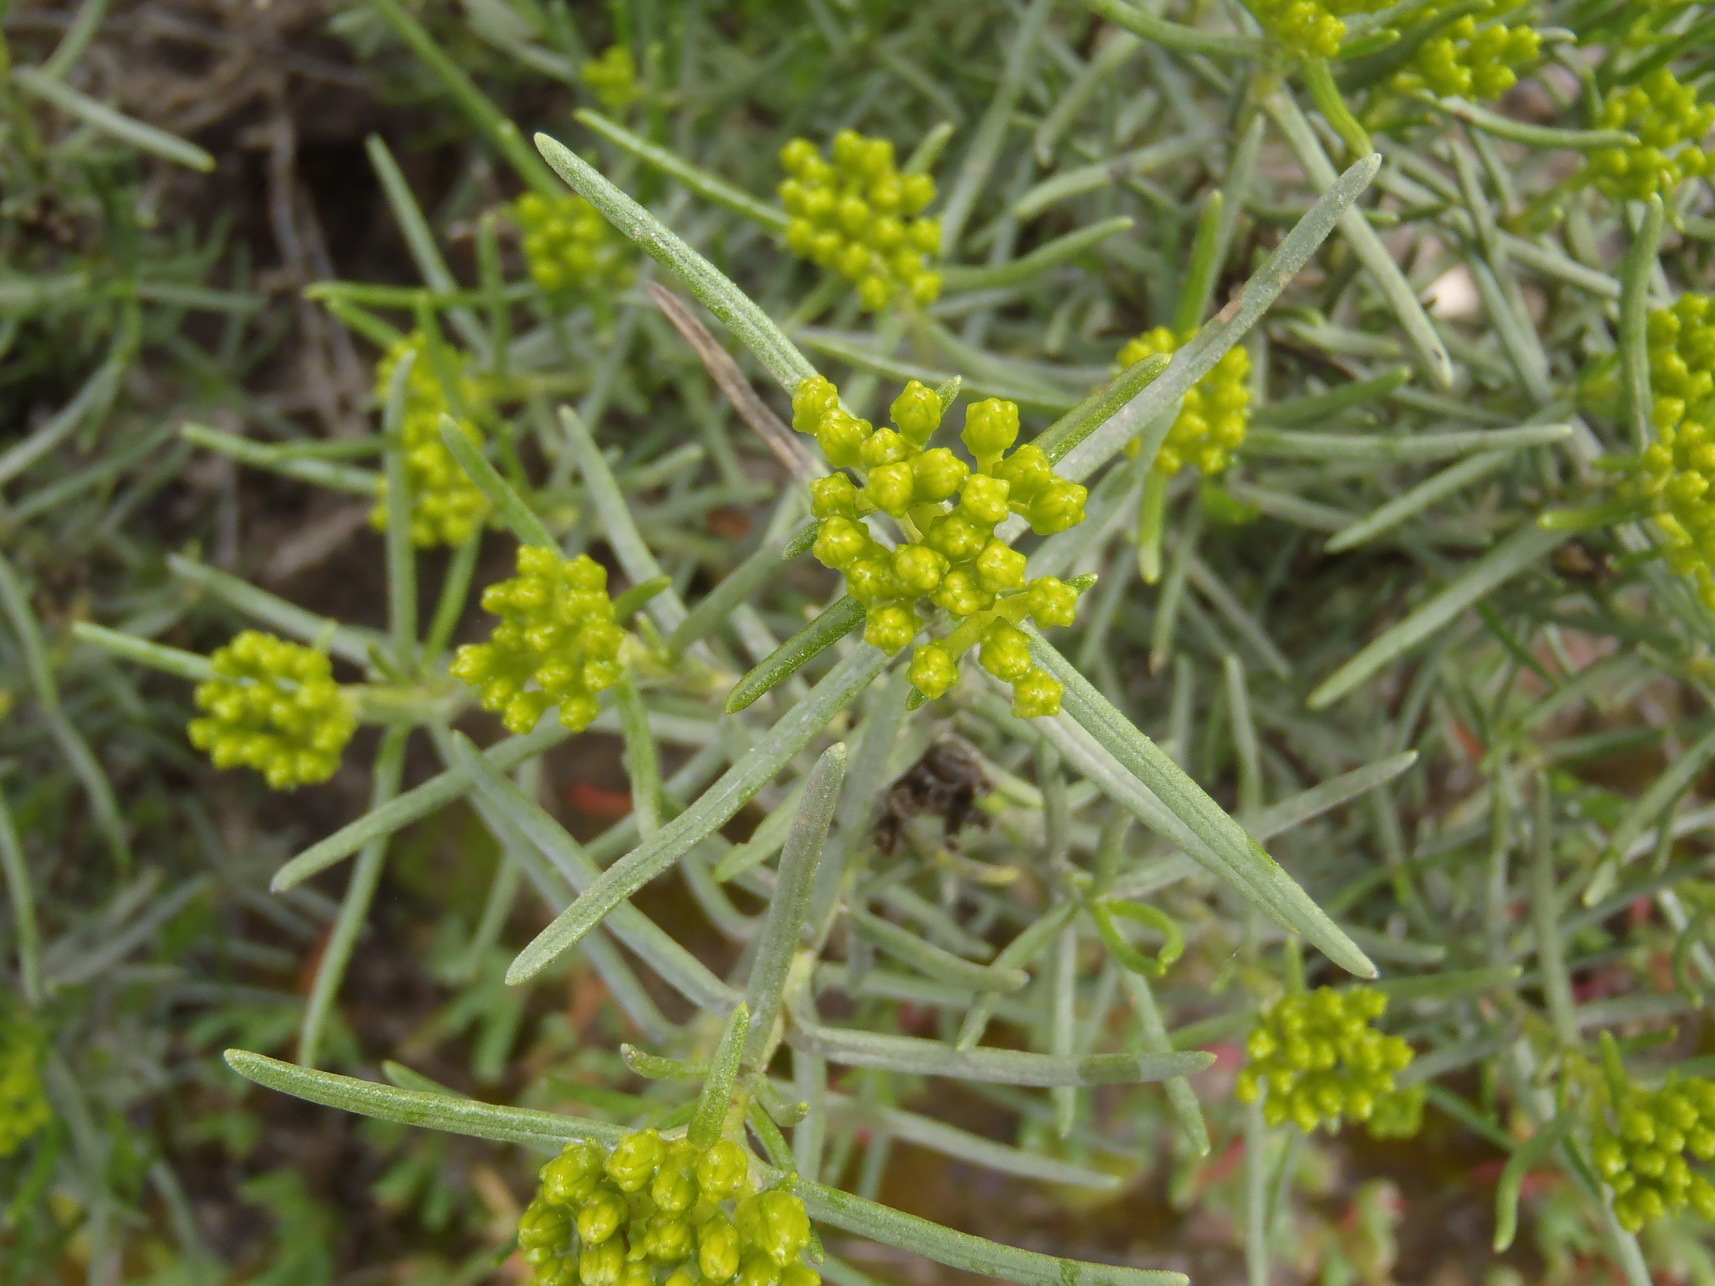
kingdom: Plantae
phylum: Tracheophyta
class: Magnoliopsida
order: Asterales
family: Asteraceae
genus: Pteronia
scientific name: Pteronia paniculata
